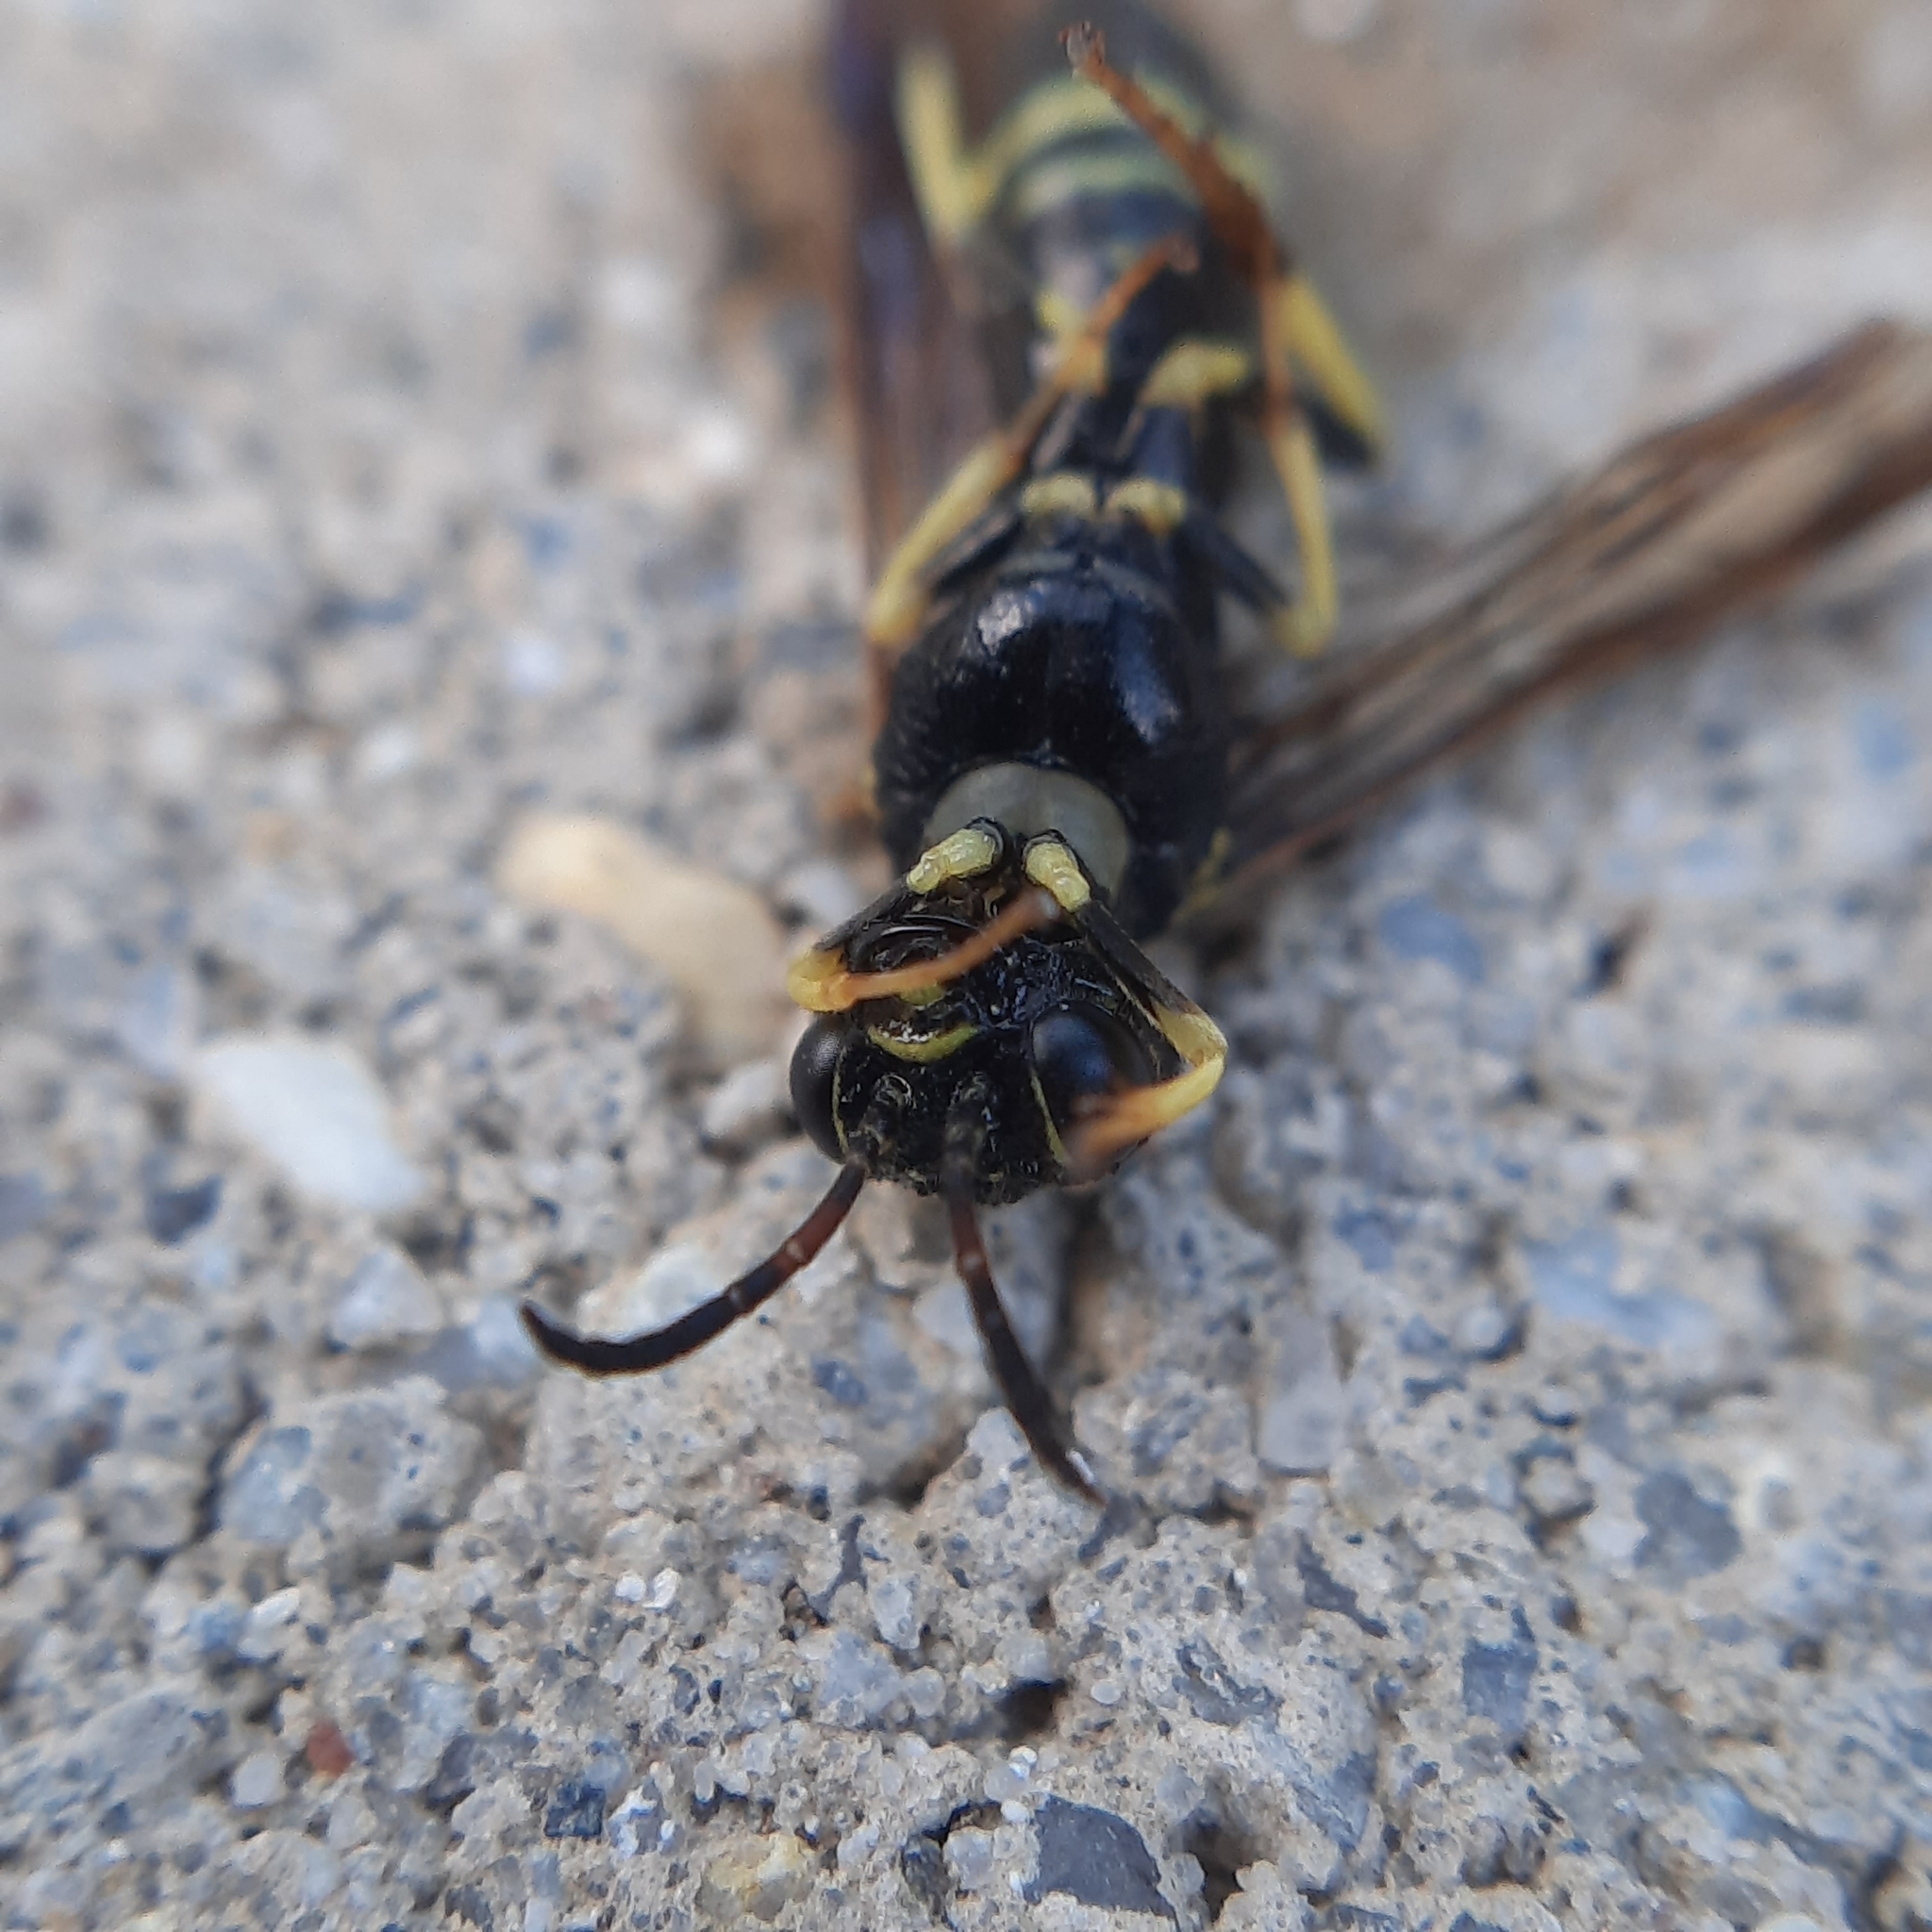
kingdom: Animalia
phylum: Arthropoda
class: Insecta
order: Hymenoptera
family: Tenthredinidae
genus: Allantus
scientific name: Allantus viennensis
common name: Sawfly
